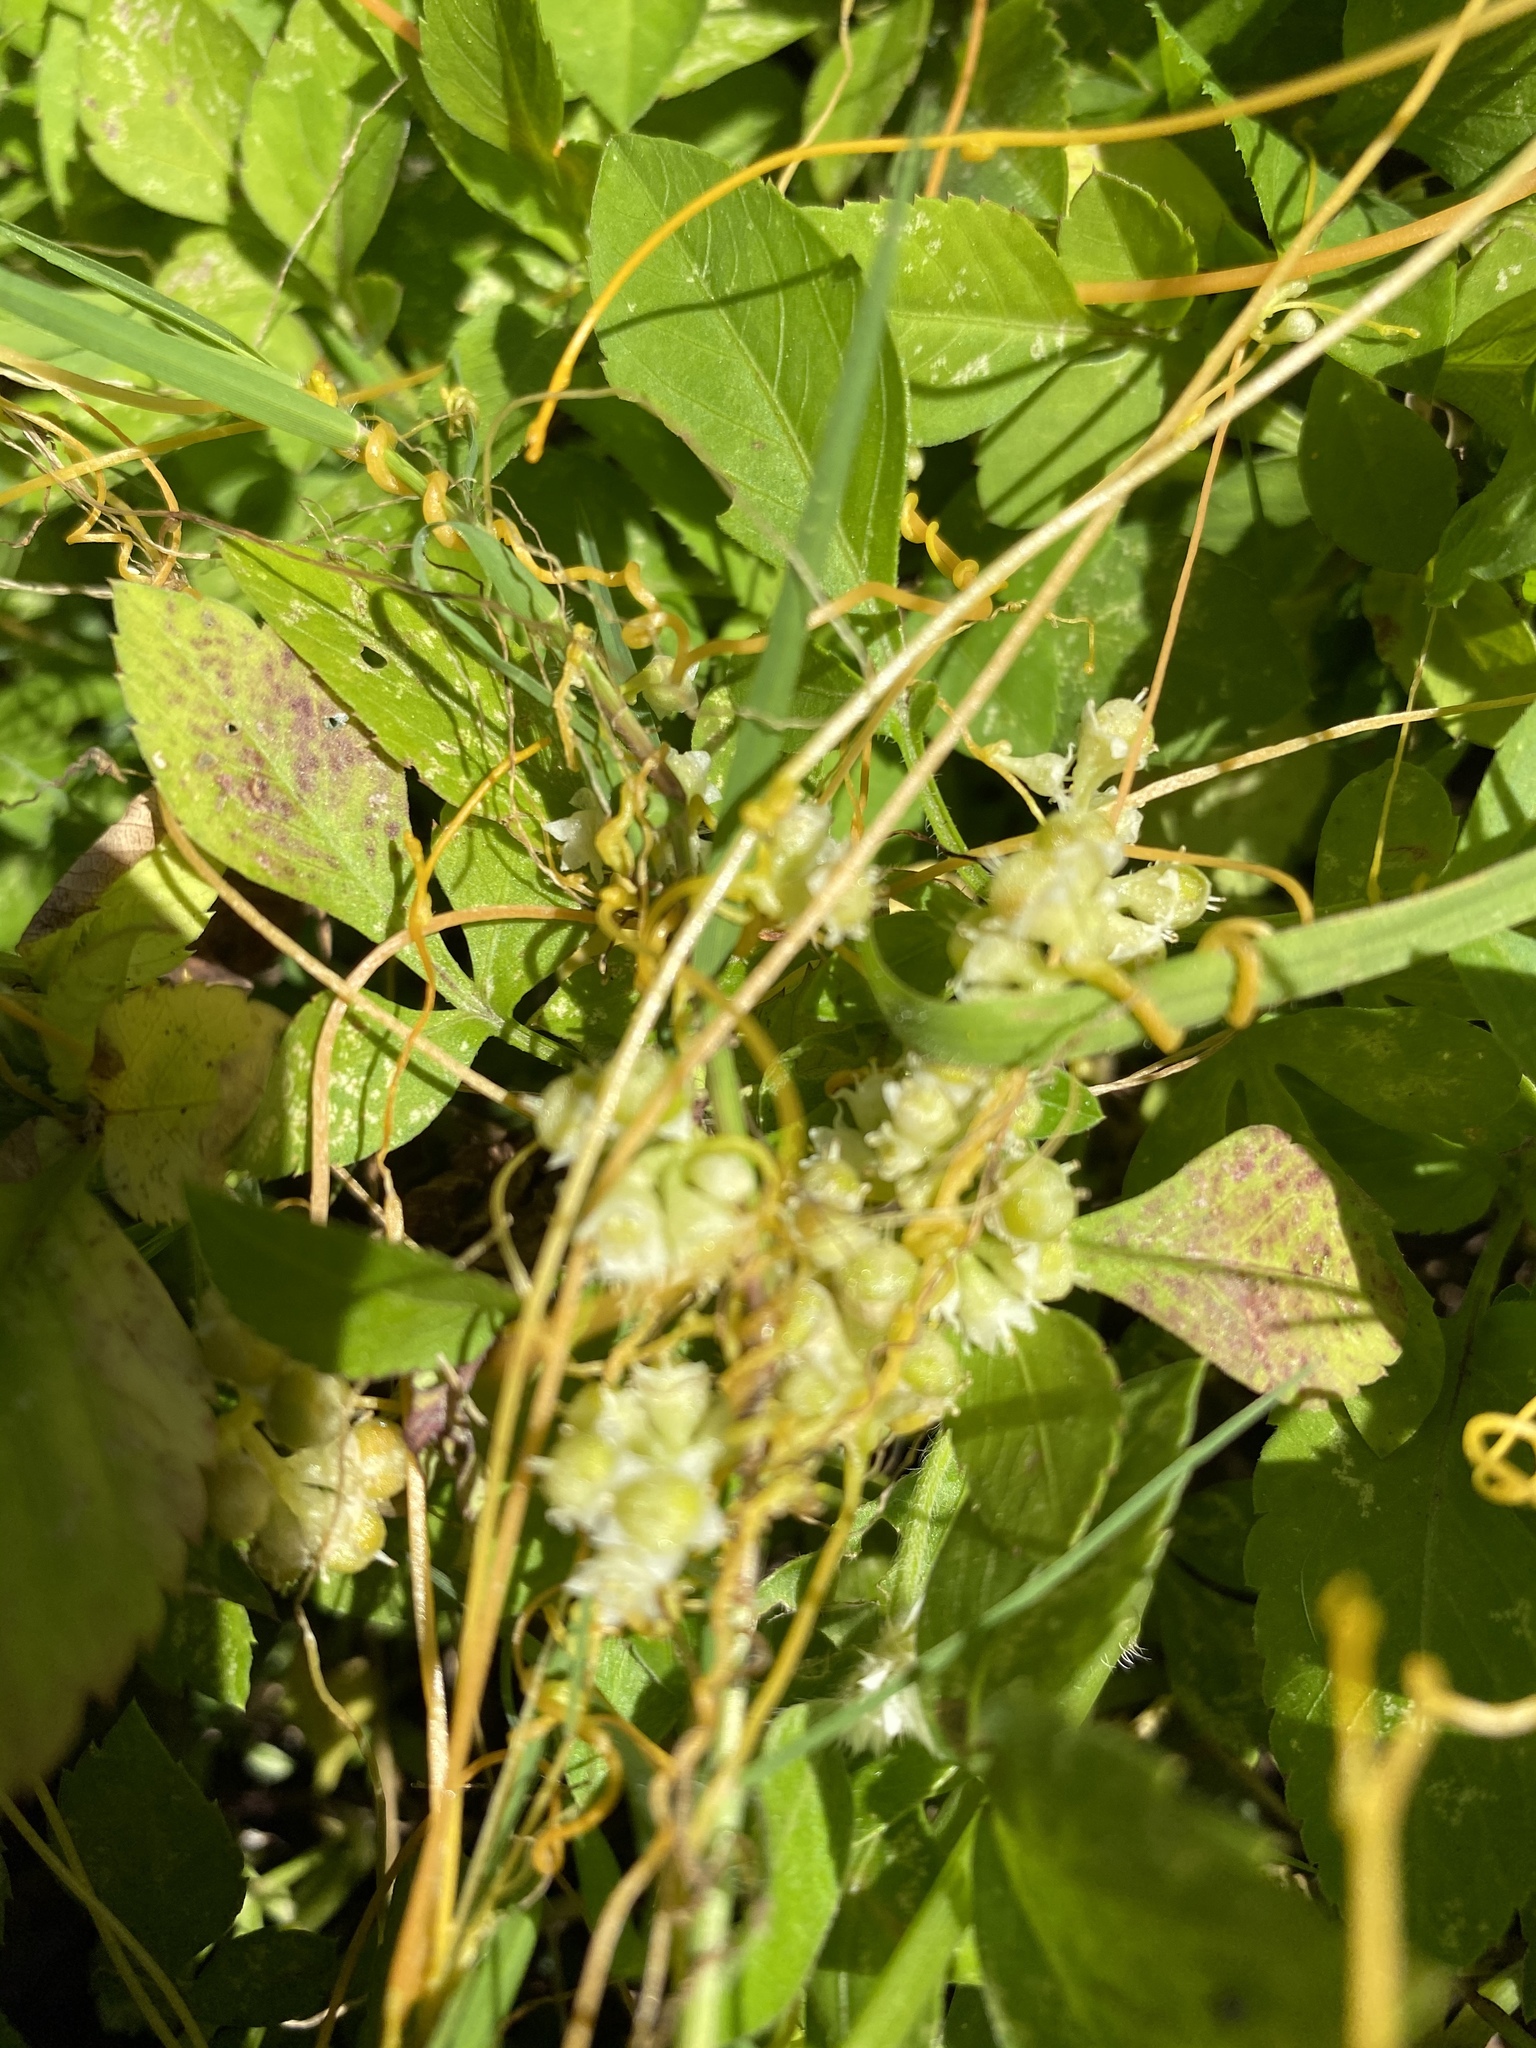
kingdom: Plantae
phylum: Tracheophyta
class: Magnoliopsida
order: Solanales
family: Convolvulaceae
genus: Cuscuta
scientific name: Cuscuta campestris
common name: Yellow dodder
